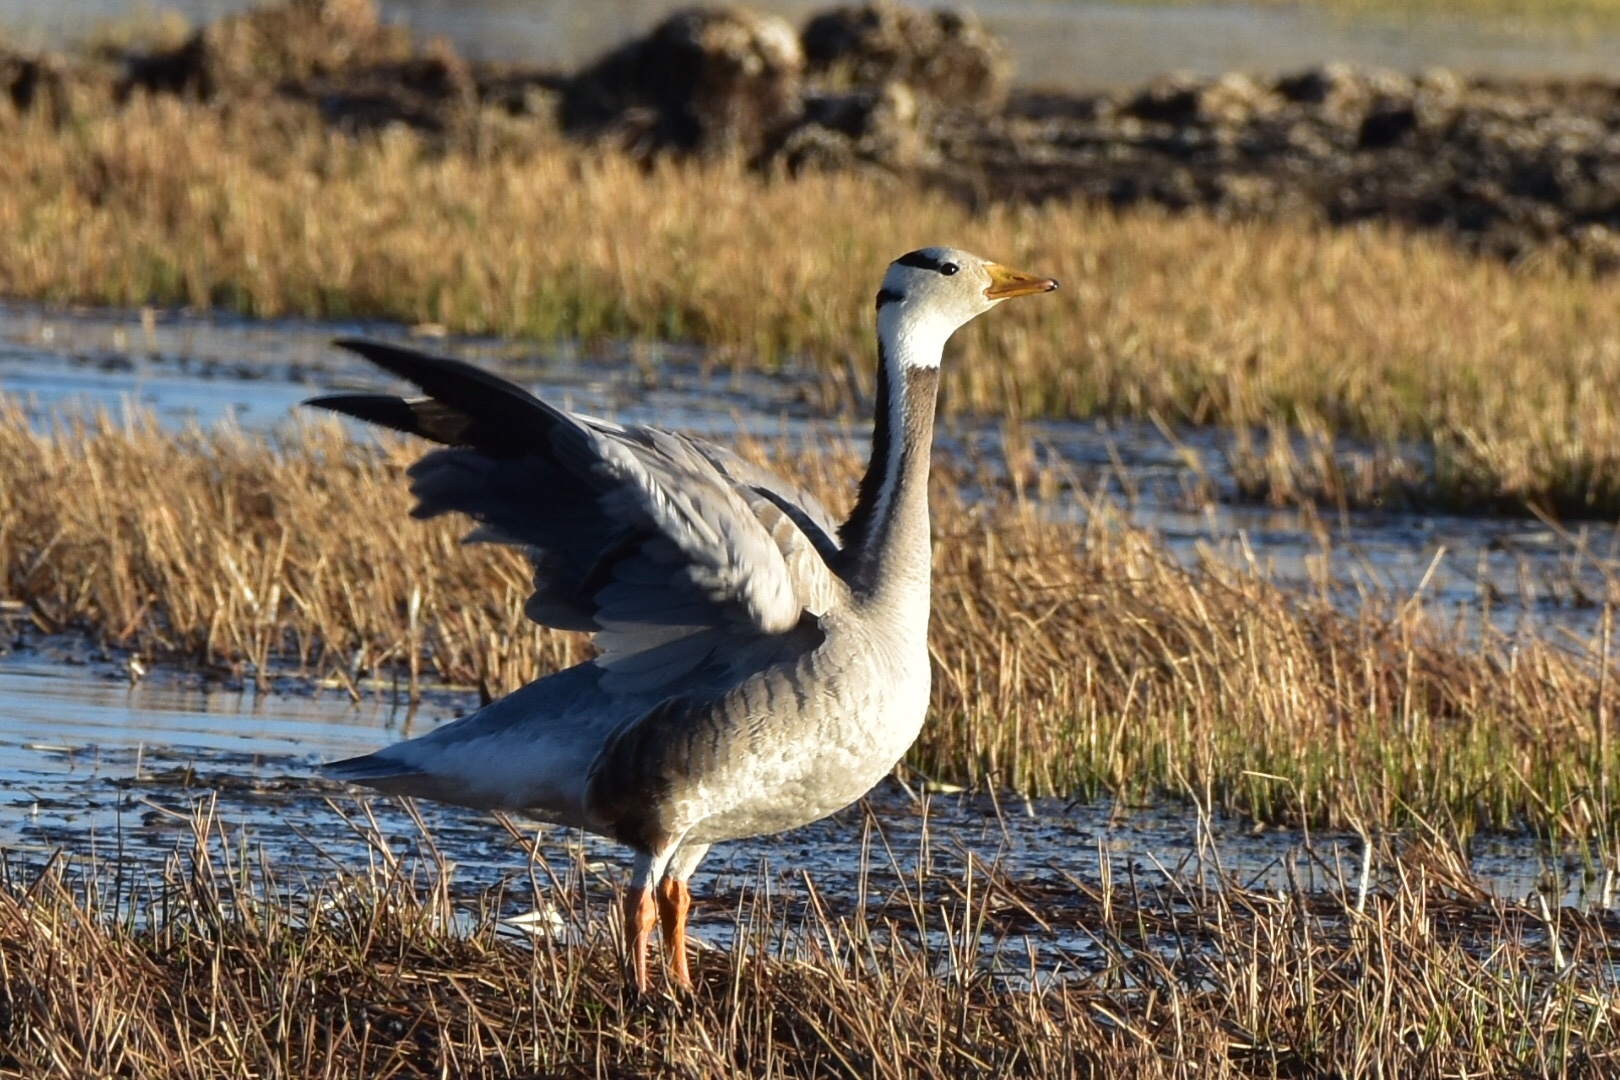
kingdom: Animalia
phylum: Chordata
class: Aves
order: Anseriformes
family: Anatidae
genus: Anser
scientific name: Anser indicus
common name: Bar-headed goose
